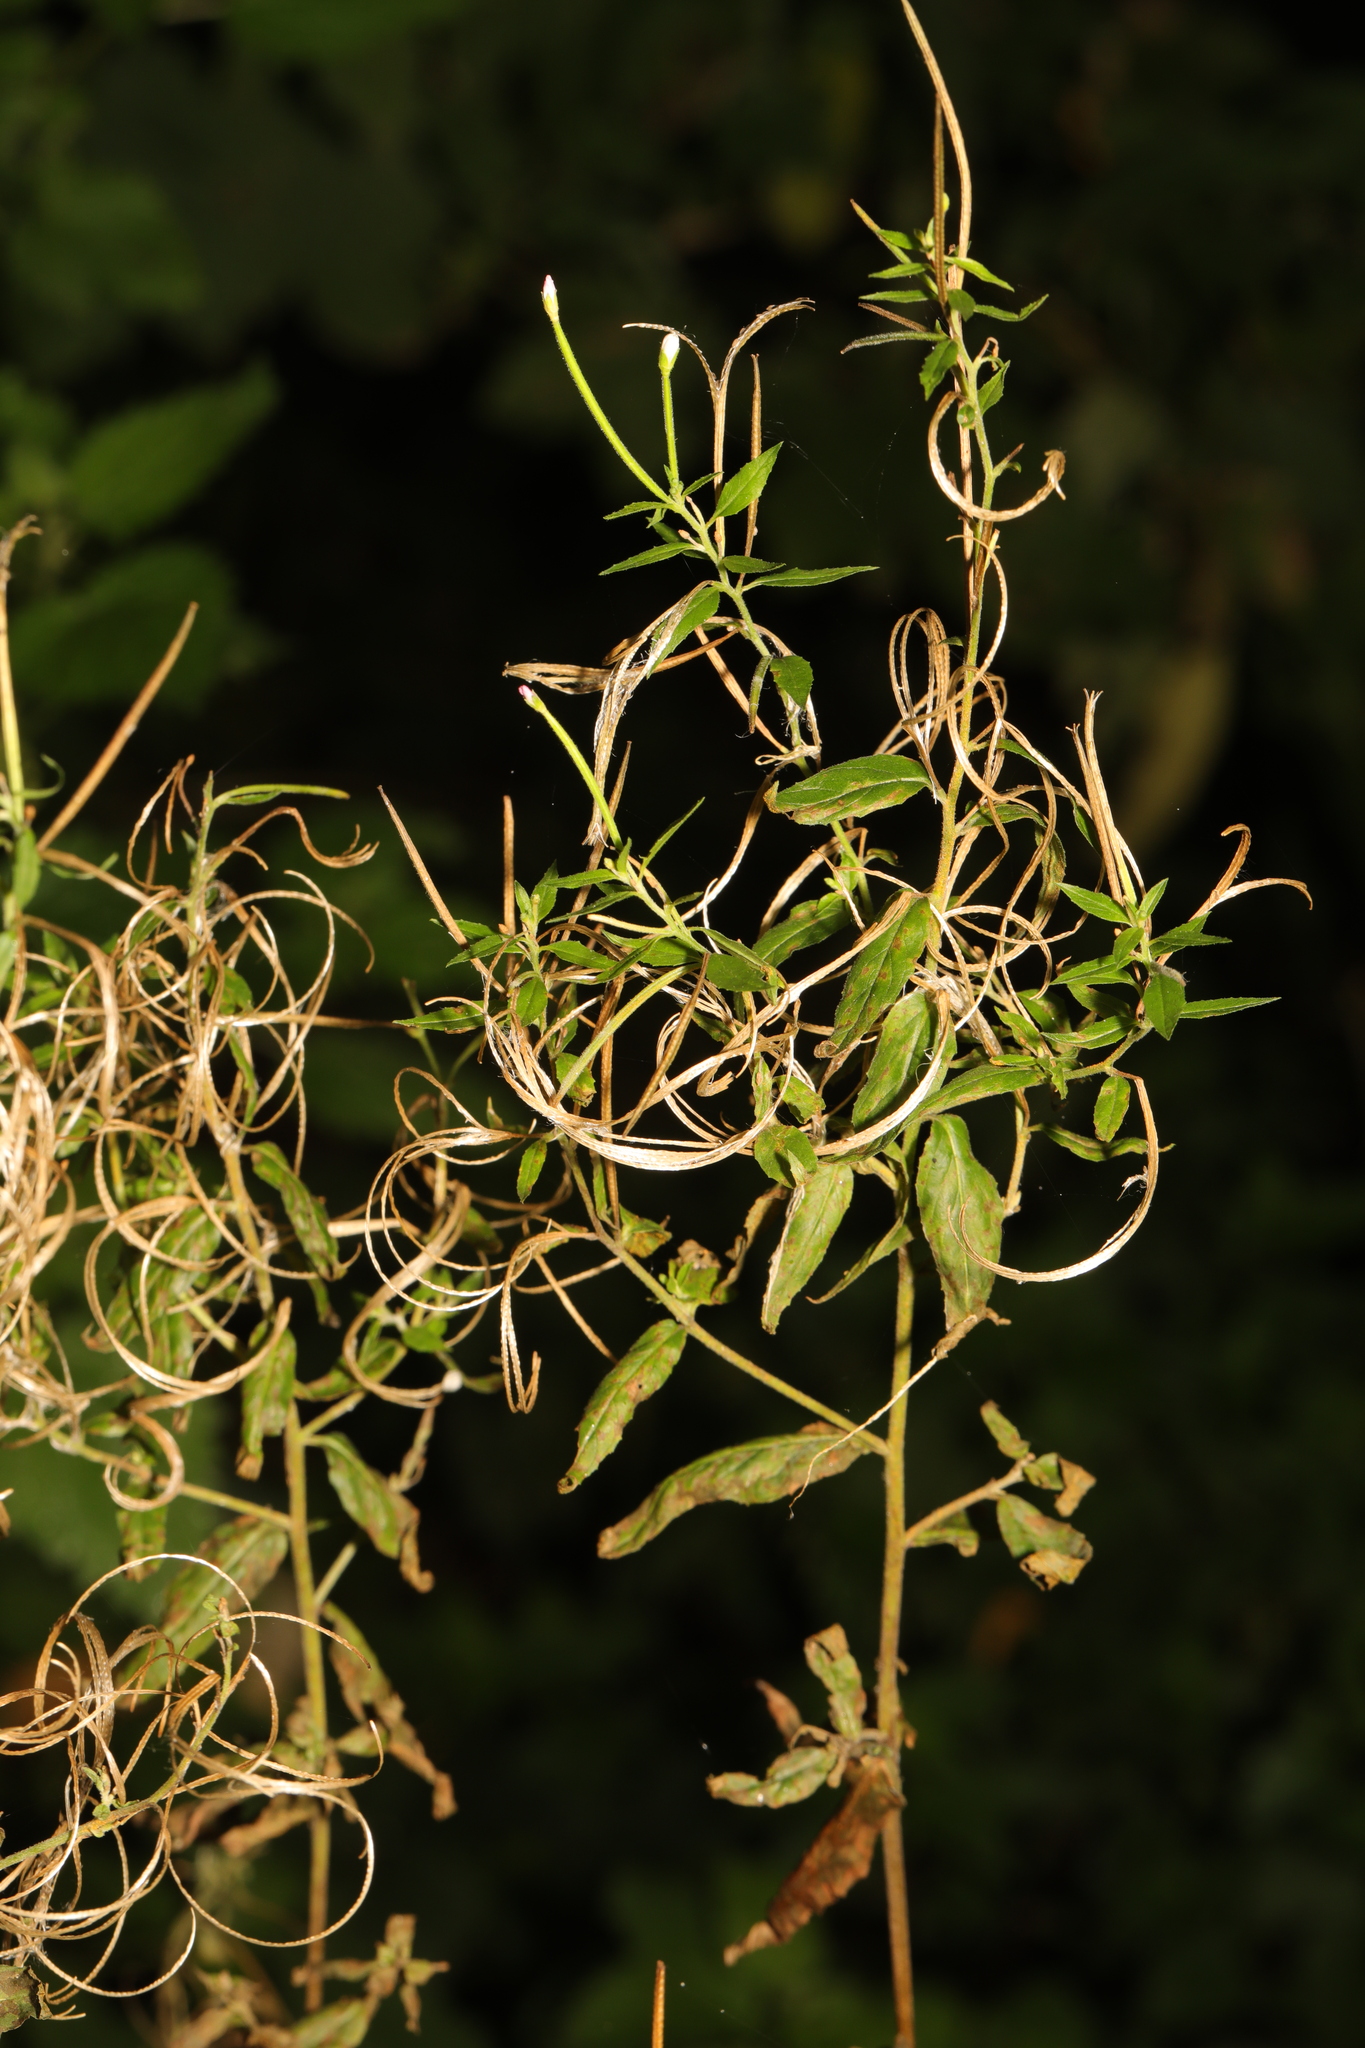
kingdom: Plantae
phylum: Tracheophyta
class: Magnoliopsida
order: Myrtales
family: Onagraceae
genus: Chamaenerion
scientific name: Chamaenerion angustifolium
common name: Fireweed
